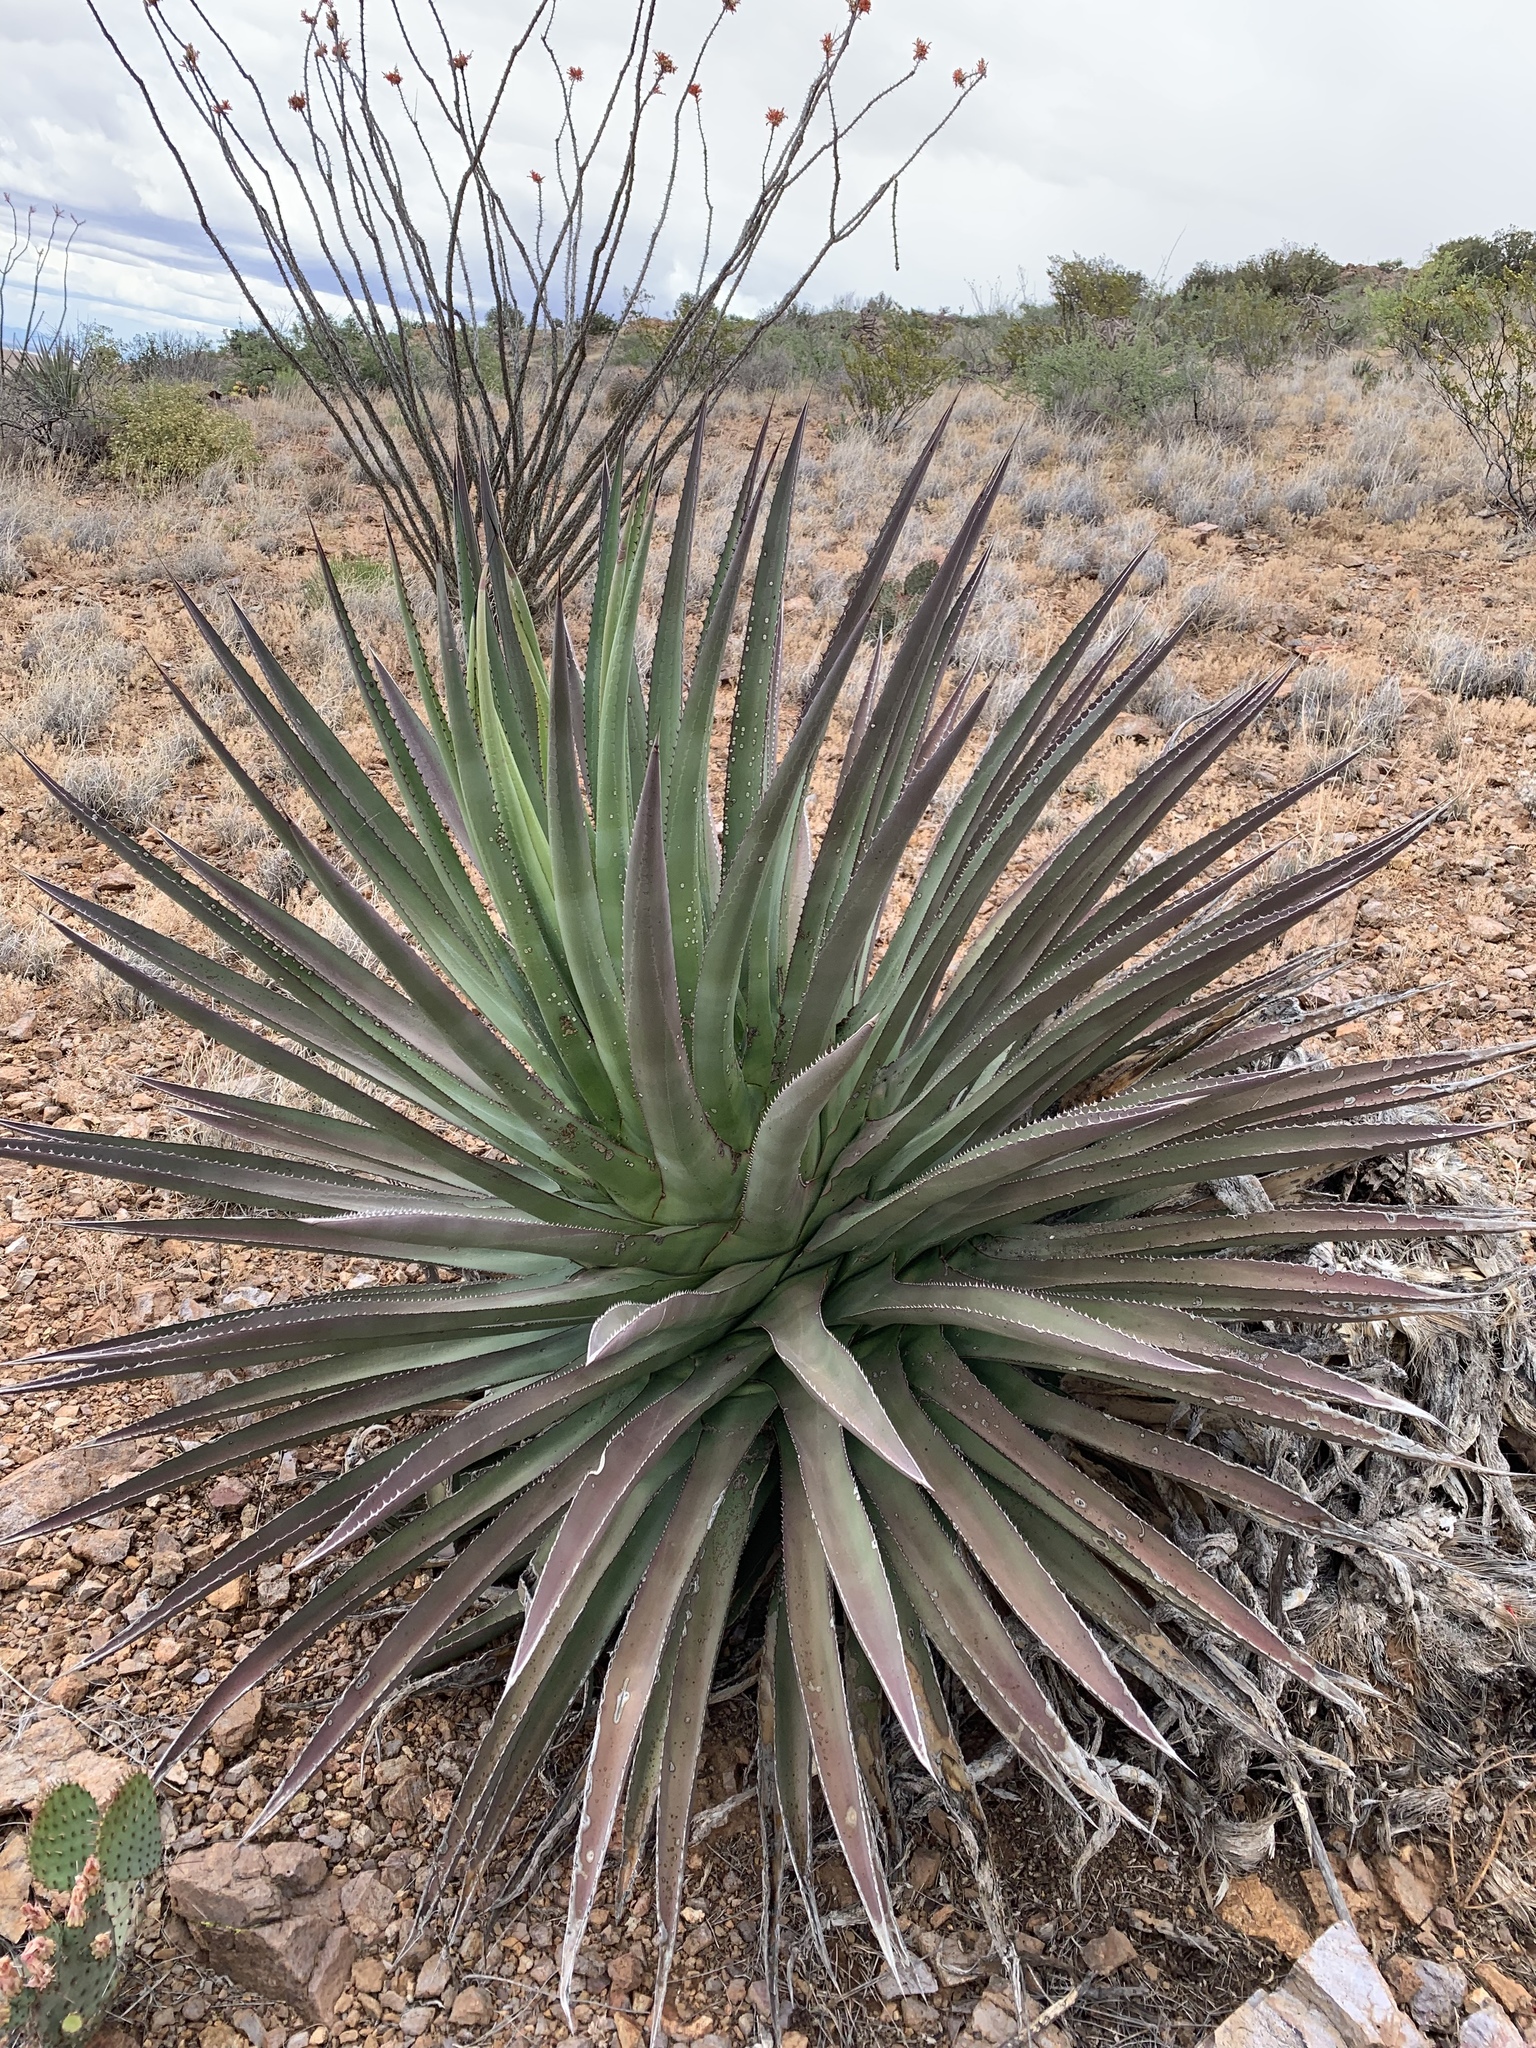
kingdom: Plantae
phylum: Tracheophyta
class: Liliopsida
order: Asparagales
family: Asparagaceae
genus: Agave
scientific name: Agave palmeri
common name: Palmer agave
